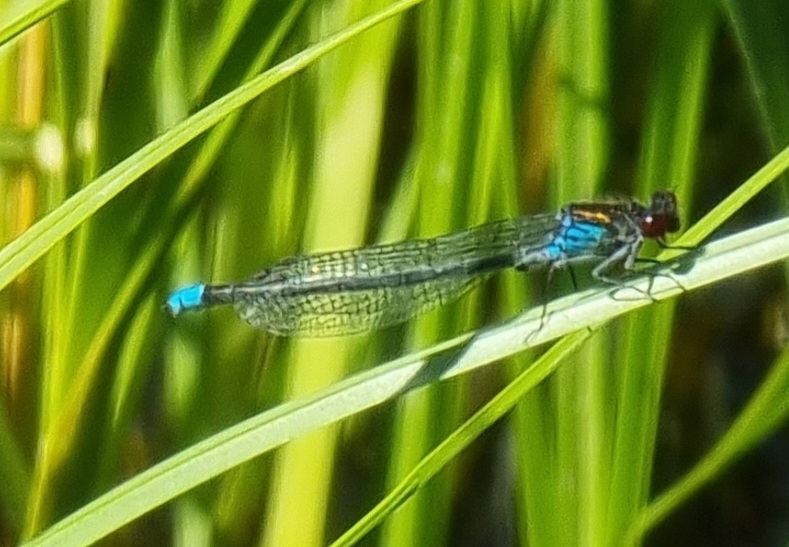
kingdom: Animalia
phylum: Arthropoda
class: Insecta
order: Odonata
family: Coenagrionidae
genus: Erythromma
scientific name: Erythromma najas
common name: Red-eyed damselfly
